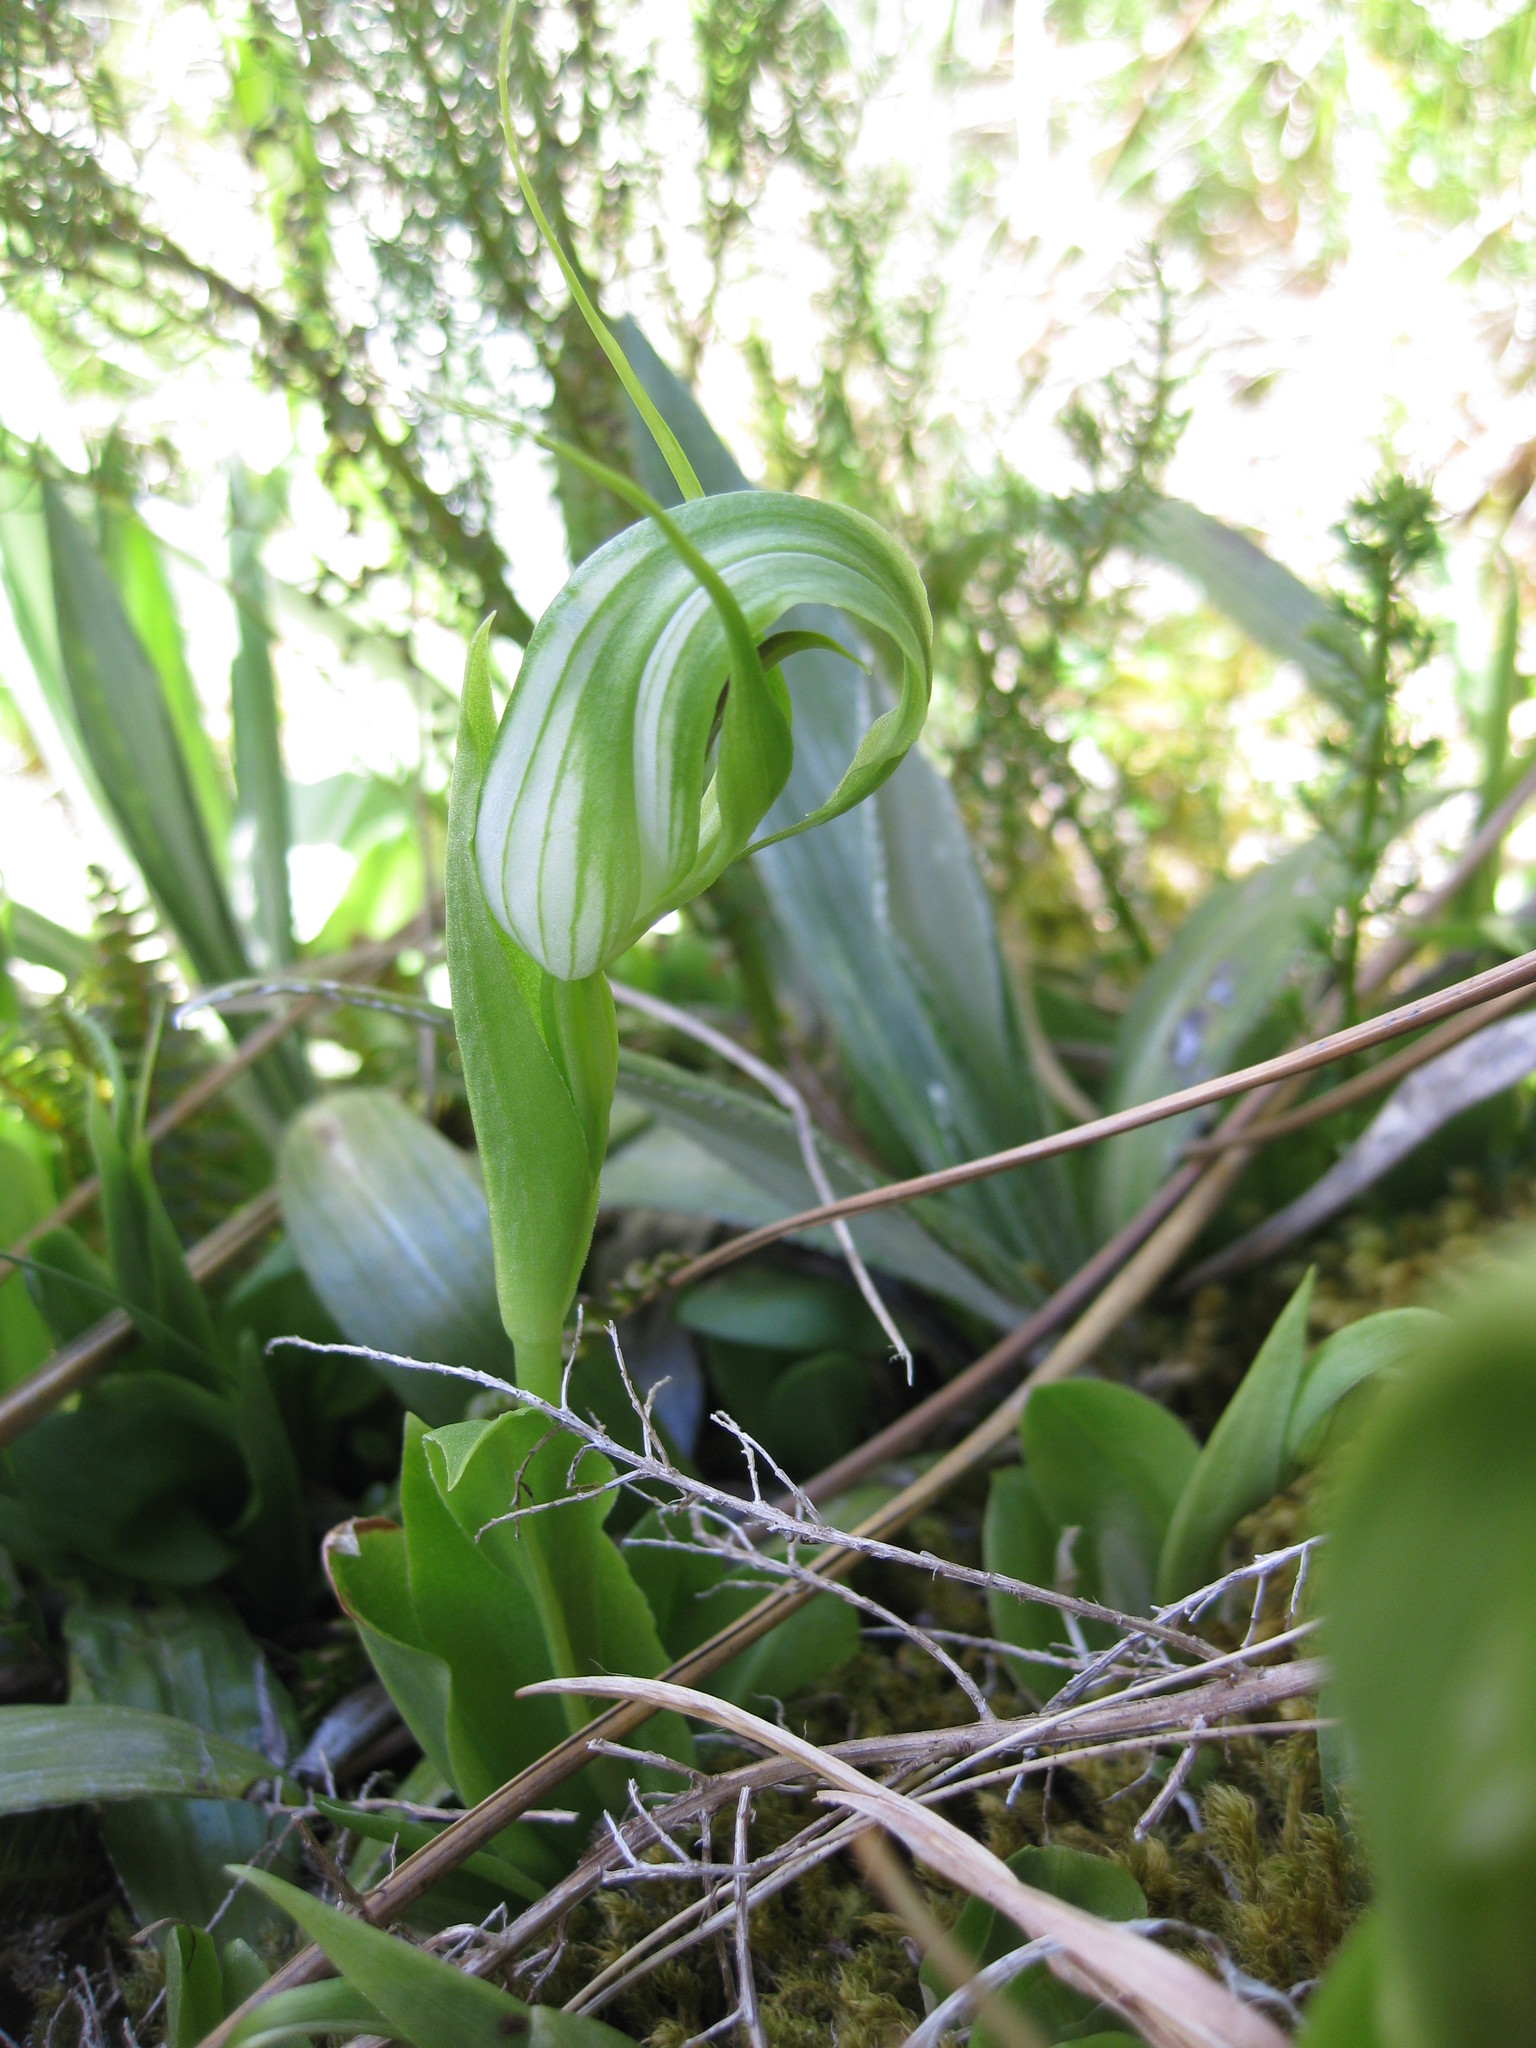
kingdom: Plantae
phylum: Tracheophyta
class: Liliopsida
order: Asparagales
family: Orchidaceae
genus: Pterostylis
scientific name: Pterostylis oliveri
